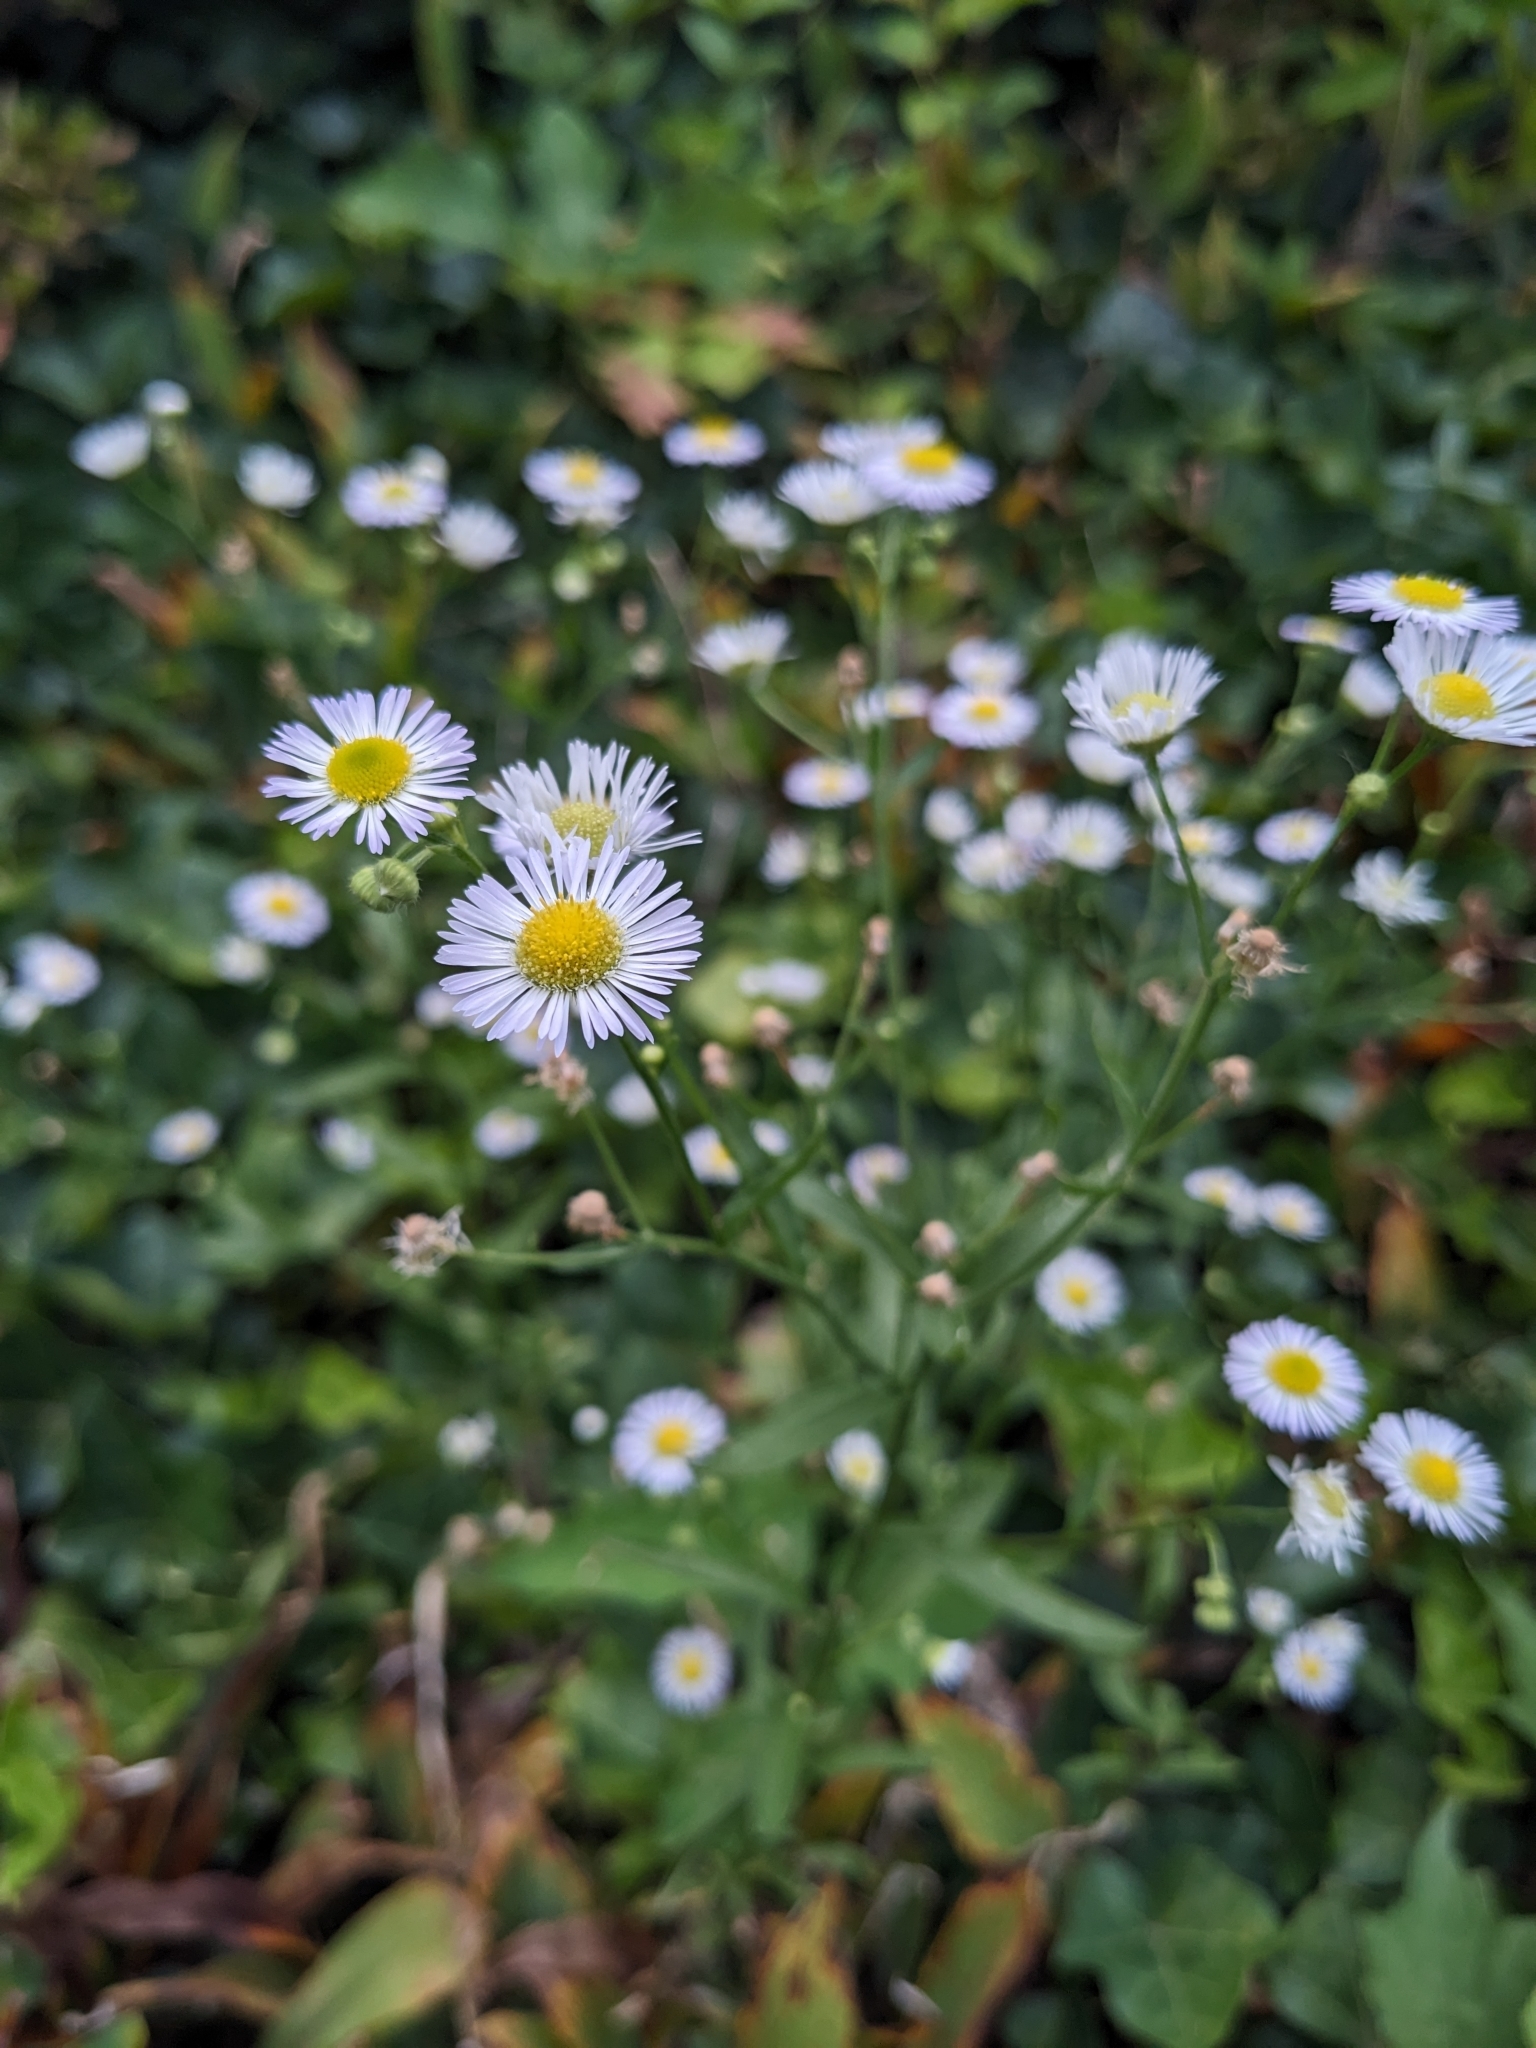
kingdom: Plantae
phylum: Tracheophyta
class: Magnoliopsida
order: Asterales
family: Asteraceae
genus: Erigeron
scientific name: Erigeron strigosus
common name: Common eastern fleabane
